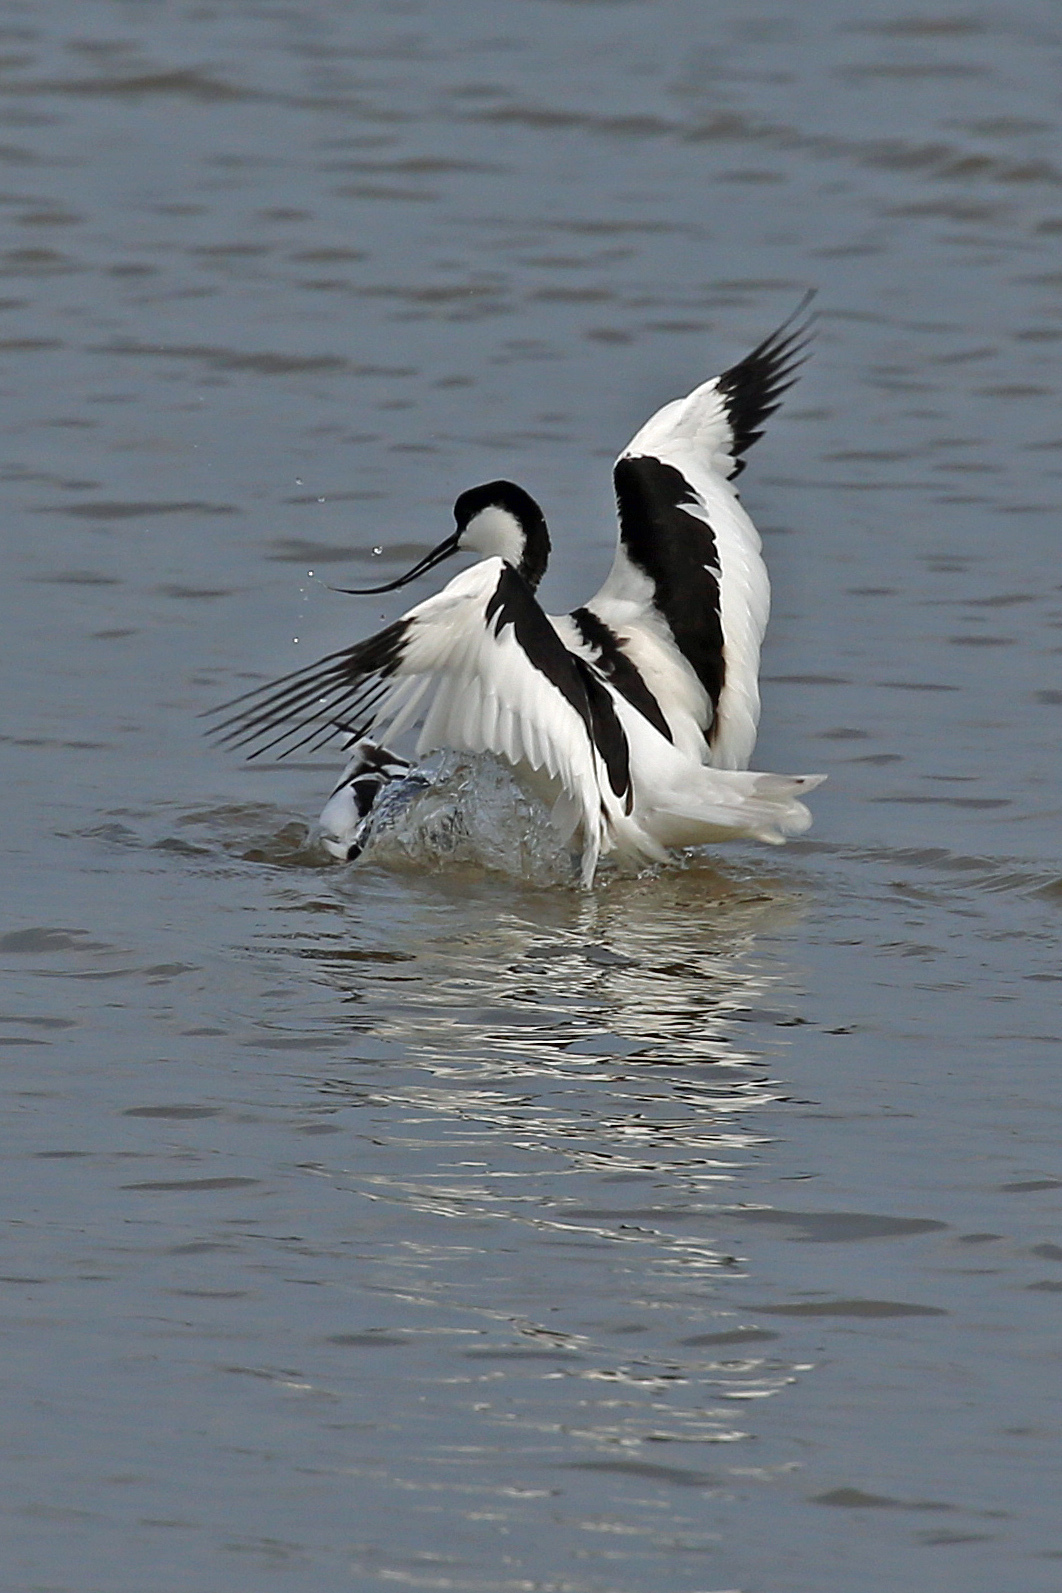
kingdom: Animalia
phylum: Chordata
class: Aves
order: Charadriiformes
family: Recurvirostridae
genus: Recurvirostra
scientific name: Recurvirostra avosetta
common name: Pied avocet
